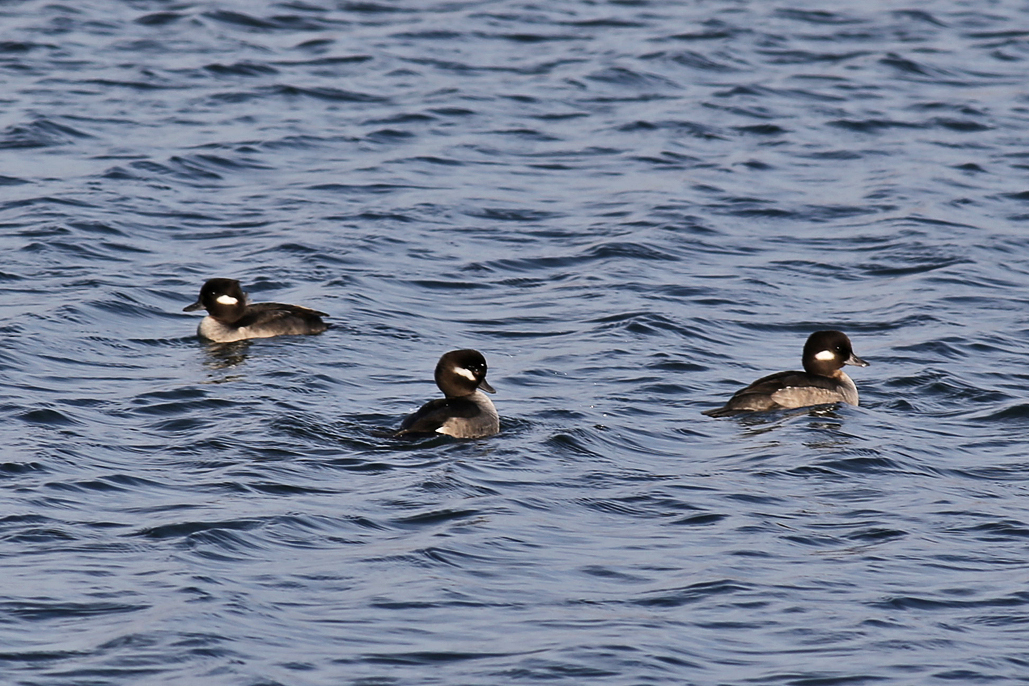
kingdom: Animalia
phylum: Chordata
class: Aves
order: Anseriformes
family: Anatidae
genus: Bucephala
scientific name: Bucephala albeola
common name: Bufflehead
